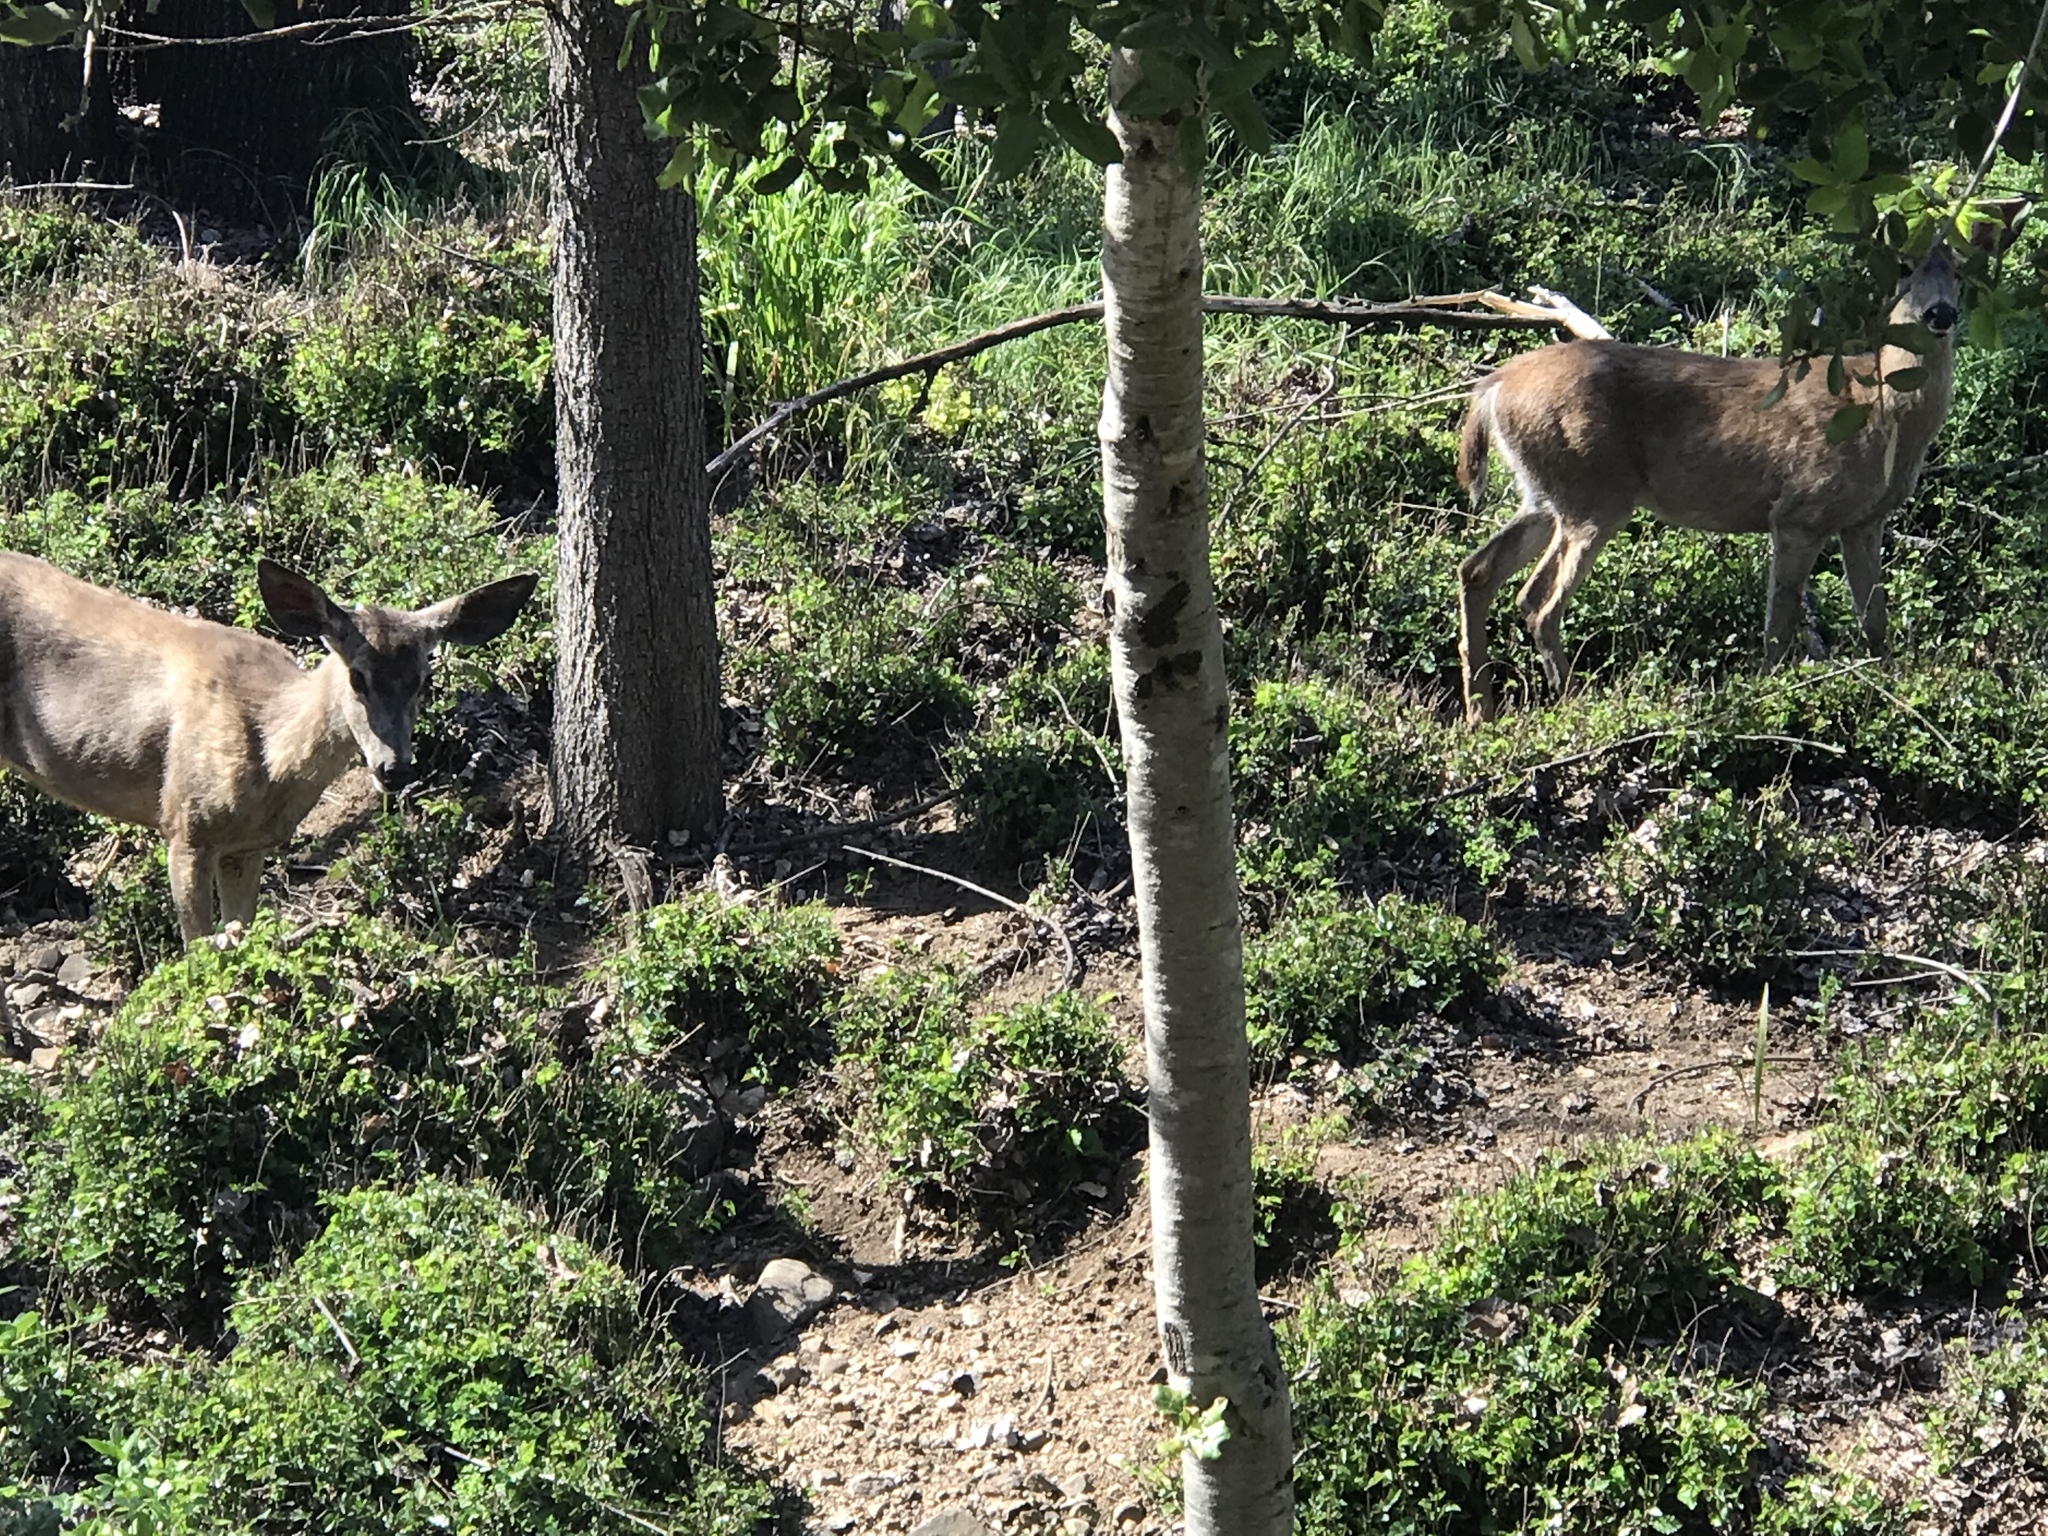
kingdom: Animalia
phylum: Chordata
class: Mammalia
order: Artiodactyla
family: Cervidae
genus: Odocoileus
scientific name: Odocoileus hemionus
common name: Mule deer
